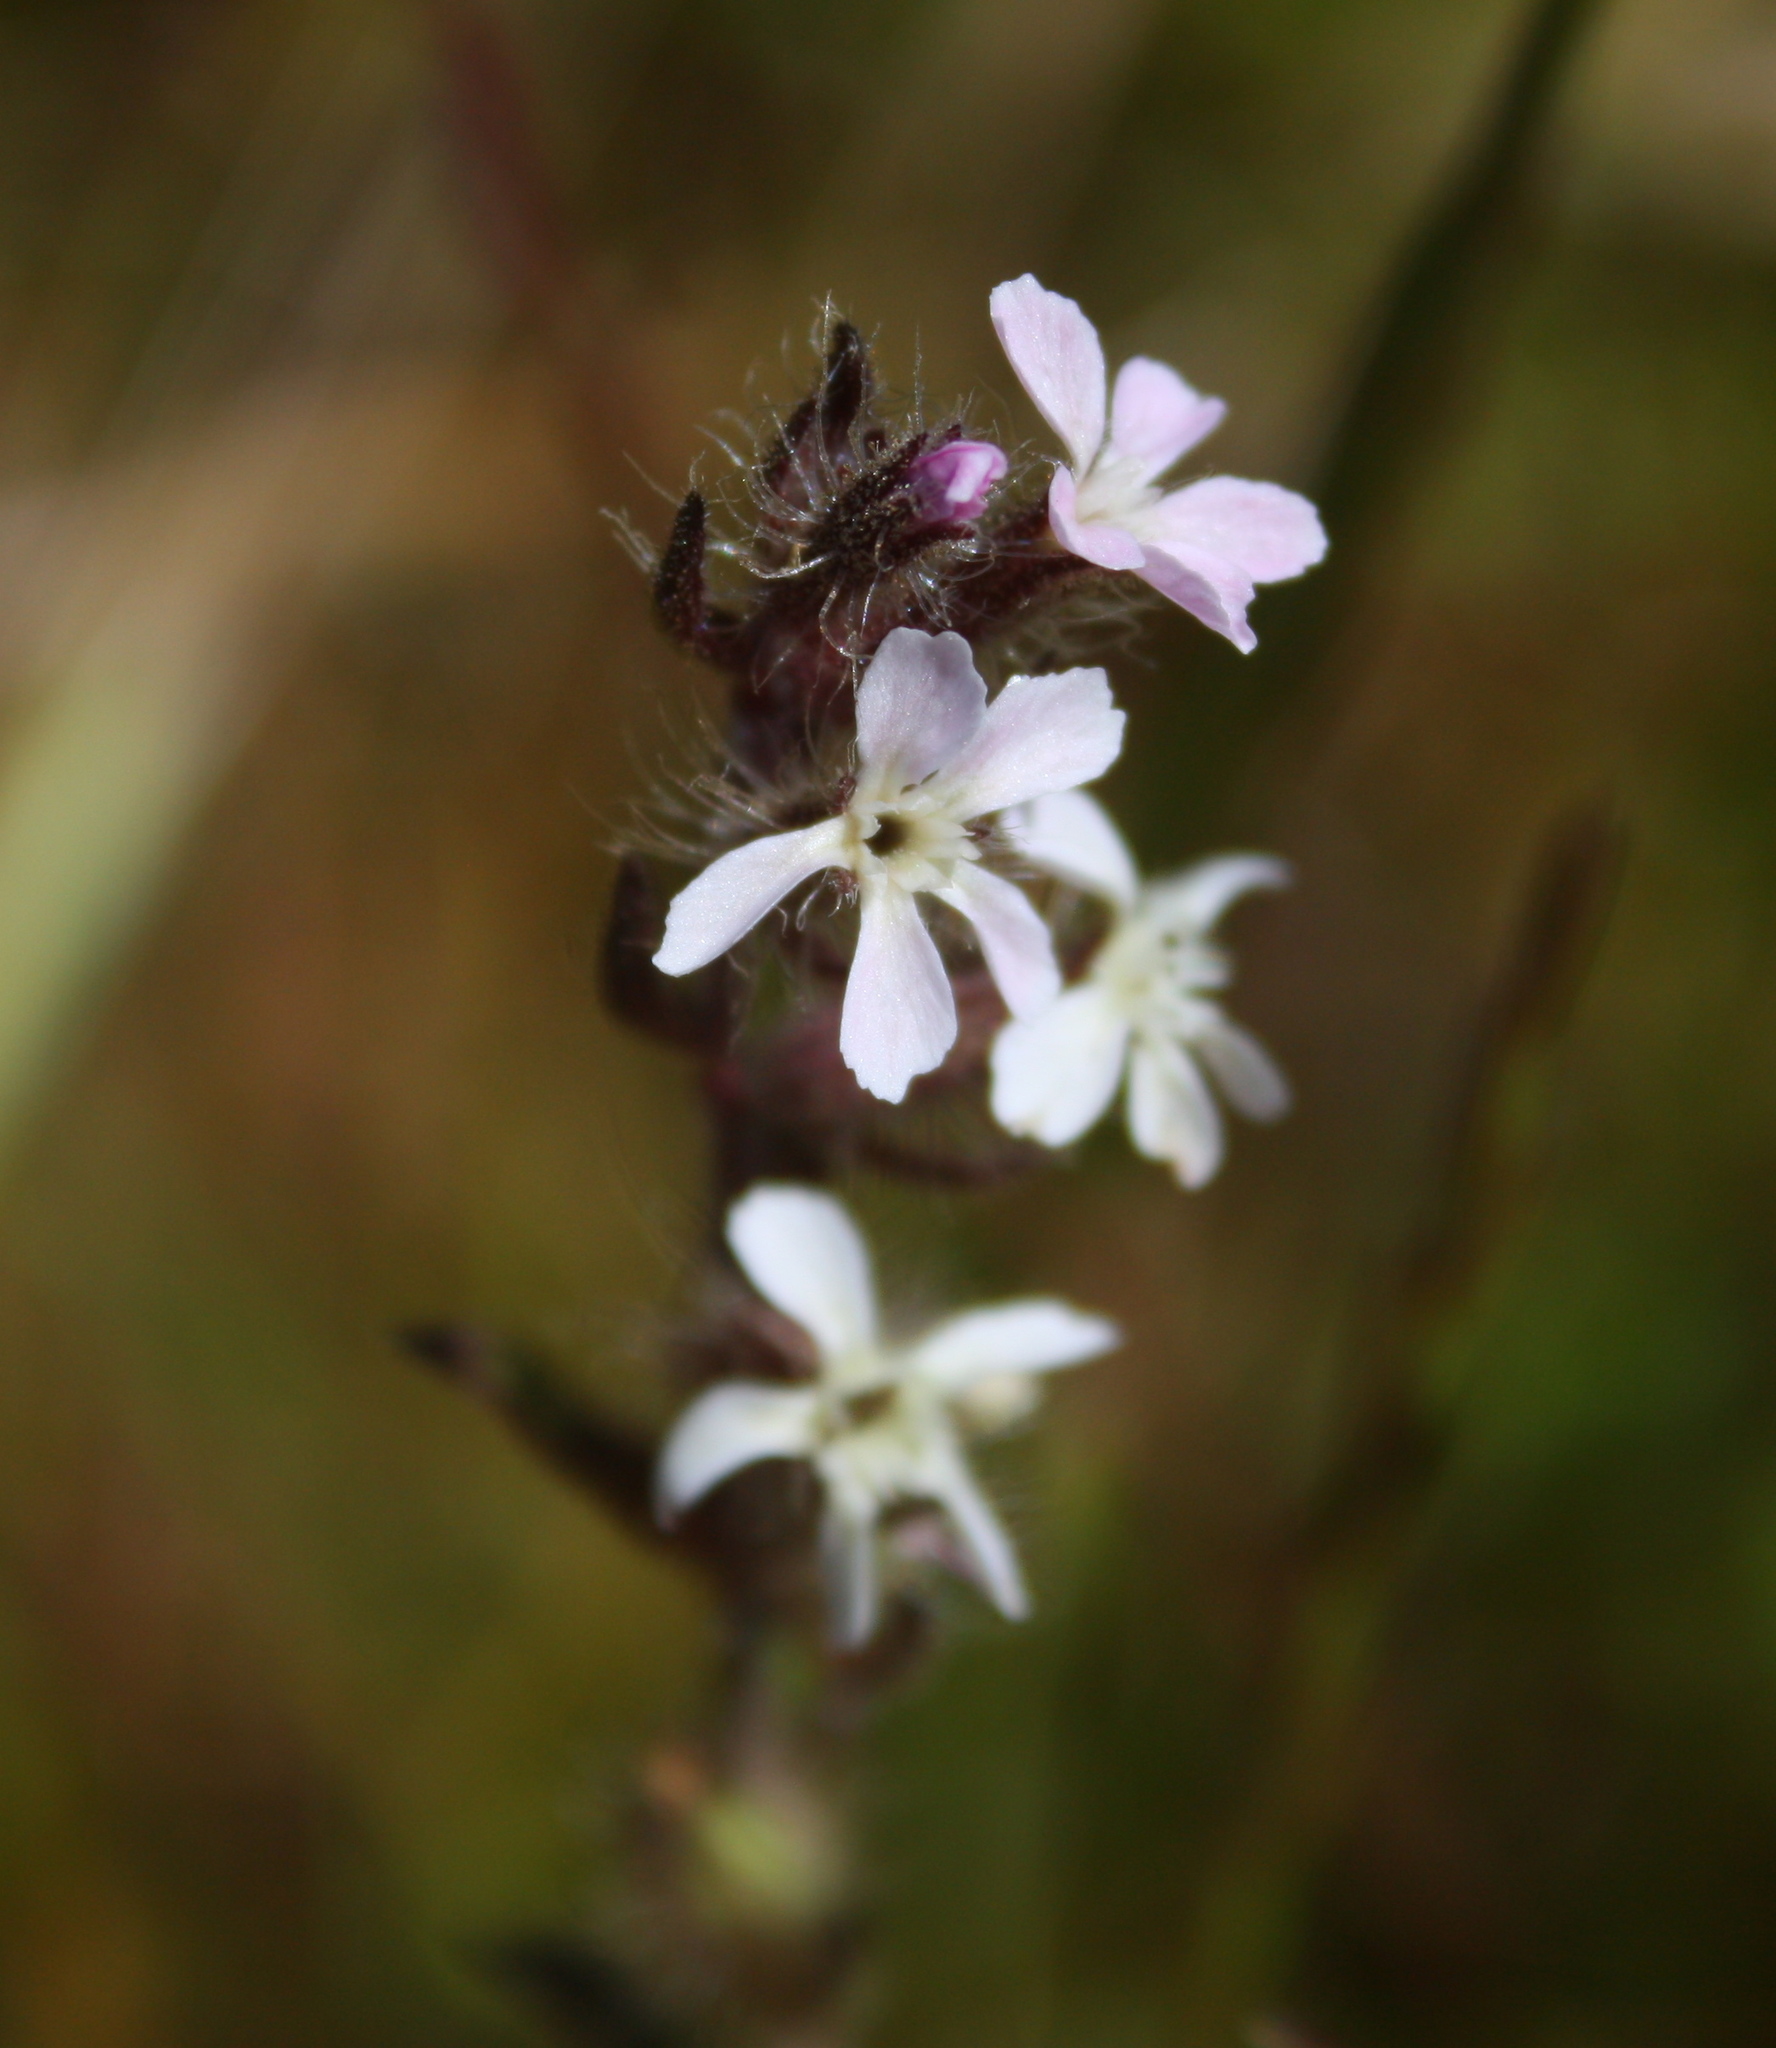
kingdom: Plantae
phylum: Tracheophyta
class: Magnoliopsida
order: Caryophyllales
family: Caryophyllaceae
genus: Silene
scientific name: Silene gallica
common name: Small-flowered catchfly
